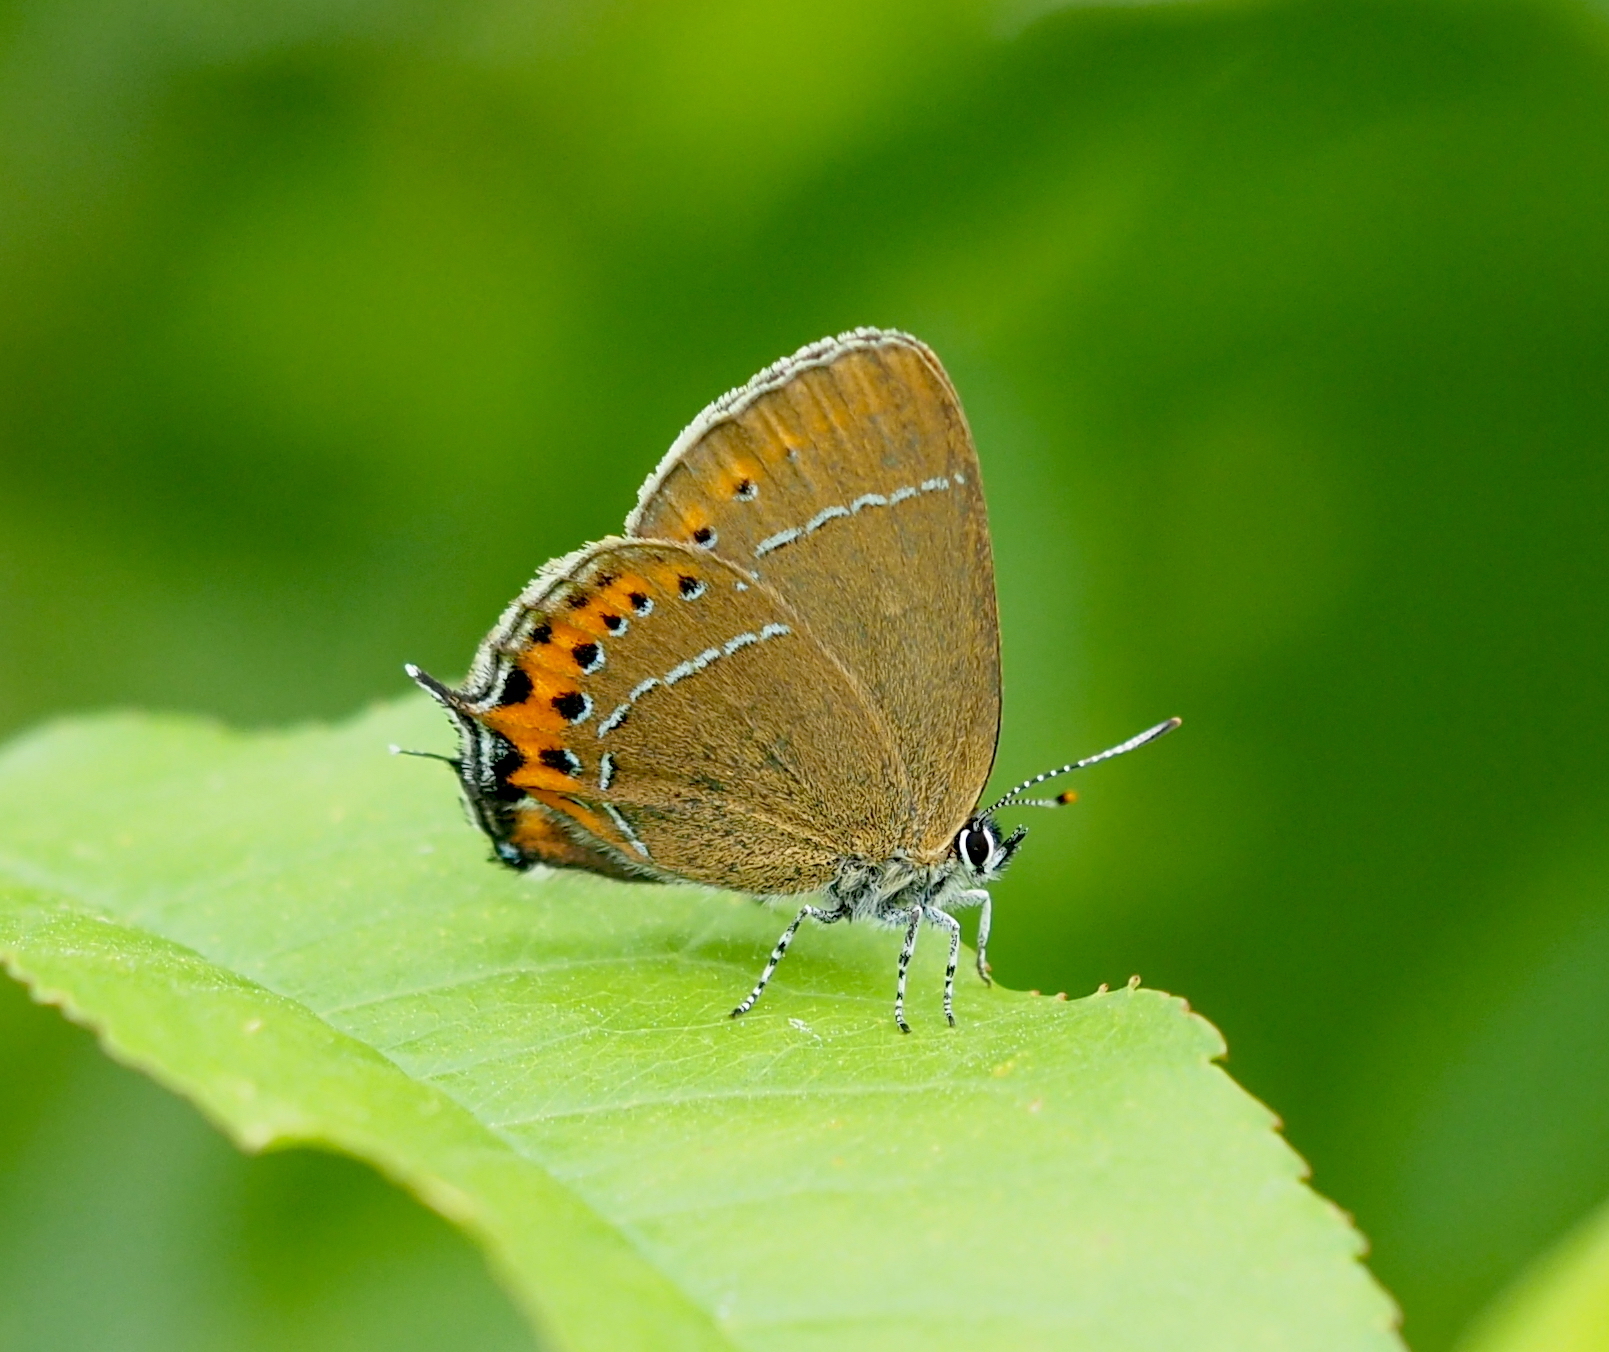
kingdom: Animalia
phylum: Arthropoda
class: Insecta
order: Lepidoptera
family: Lycaenidae
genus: Fixsenia
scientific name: Fixsenia pruni
